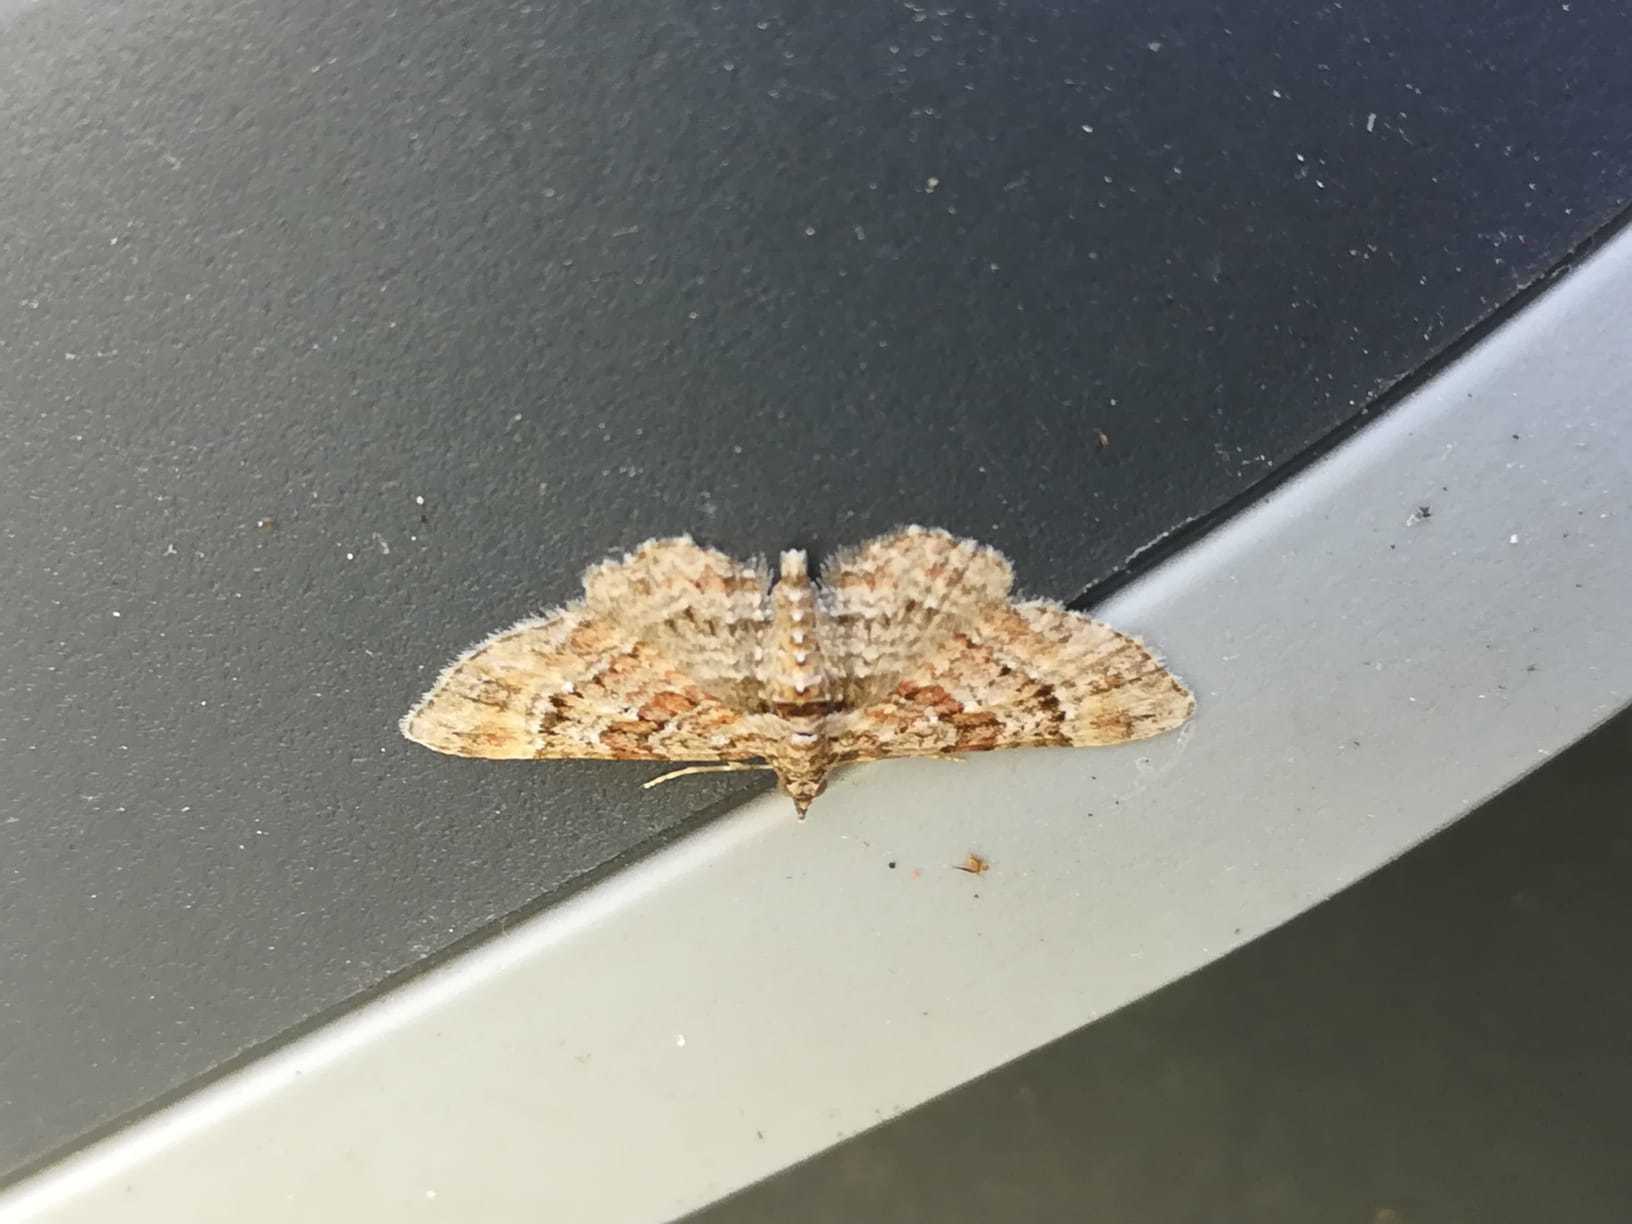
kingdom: Animalia
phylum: Arthropoda
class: Insecta
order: Lepidoptera
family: Geometridae
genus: Gymnoscelis
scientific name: Gymnoscelis rufifasciata
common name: Double-striped pug
